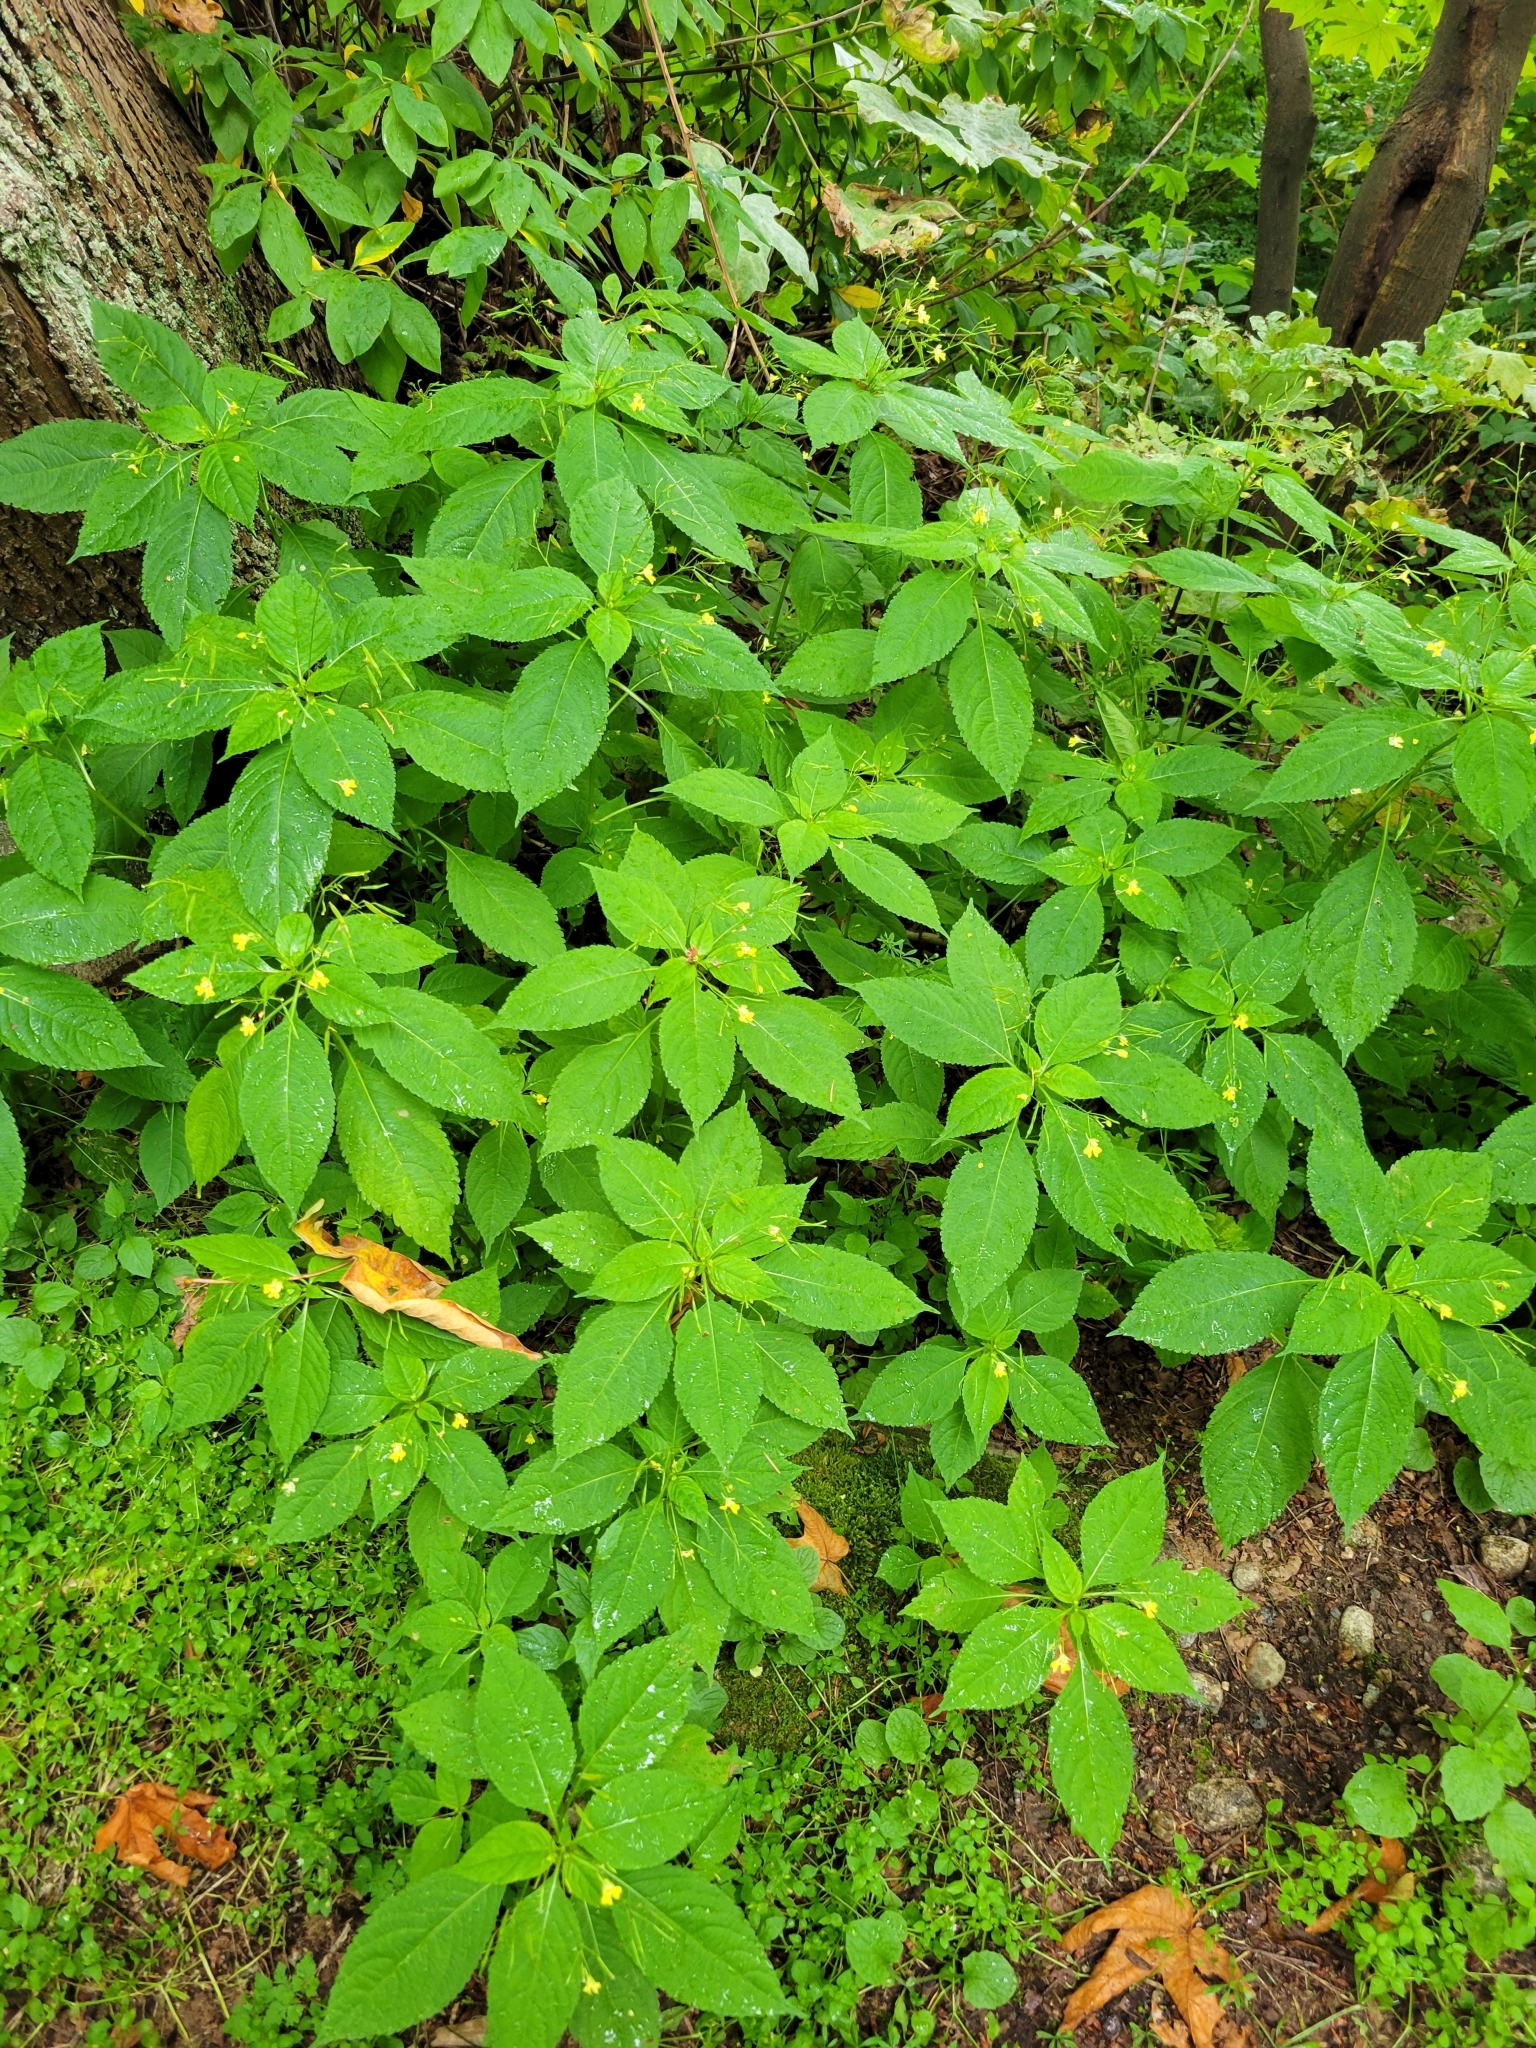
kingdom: Plantae
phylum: Tracheophyta
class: Magnoliopsida
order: Ericales
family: Balsaminaceae
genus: Impatiens
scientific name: Impatiens parviflora
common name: Small balsam
